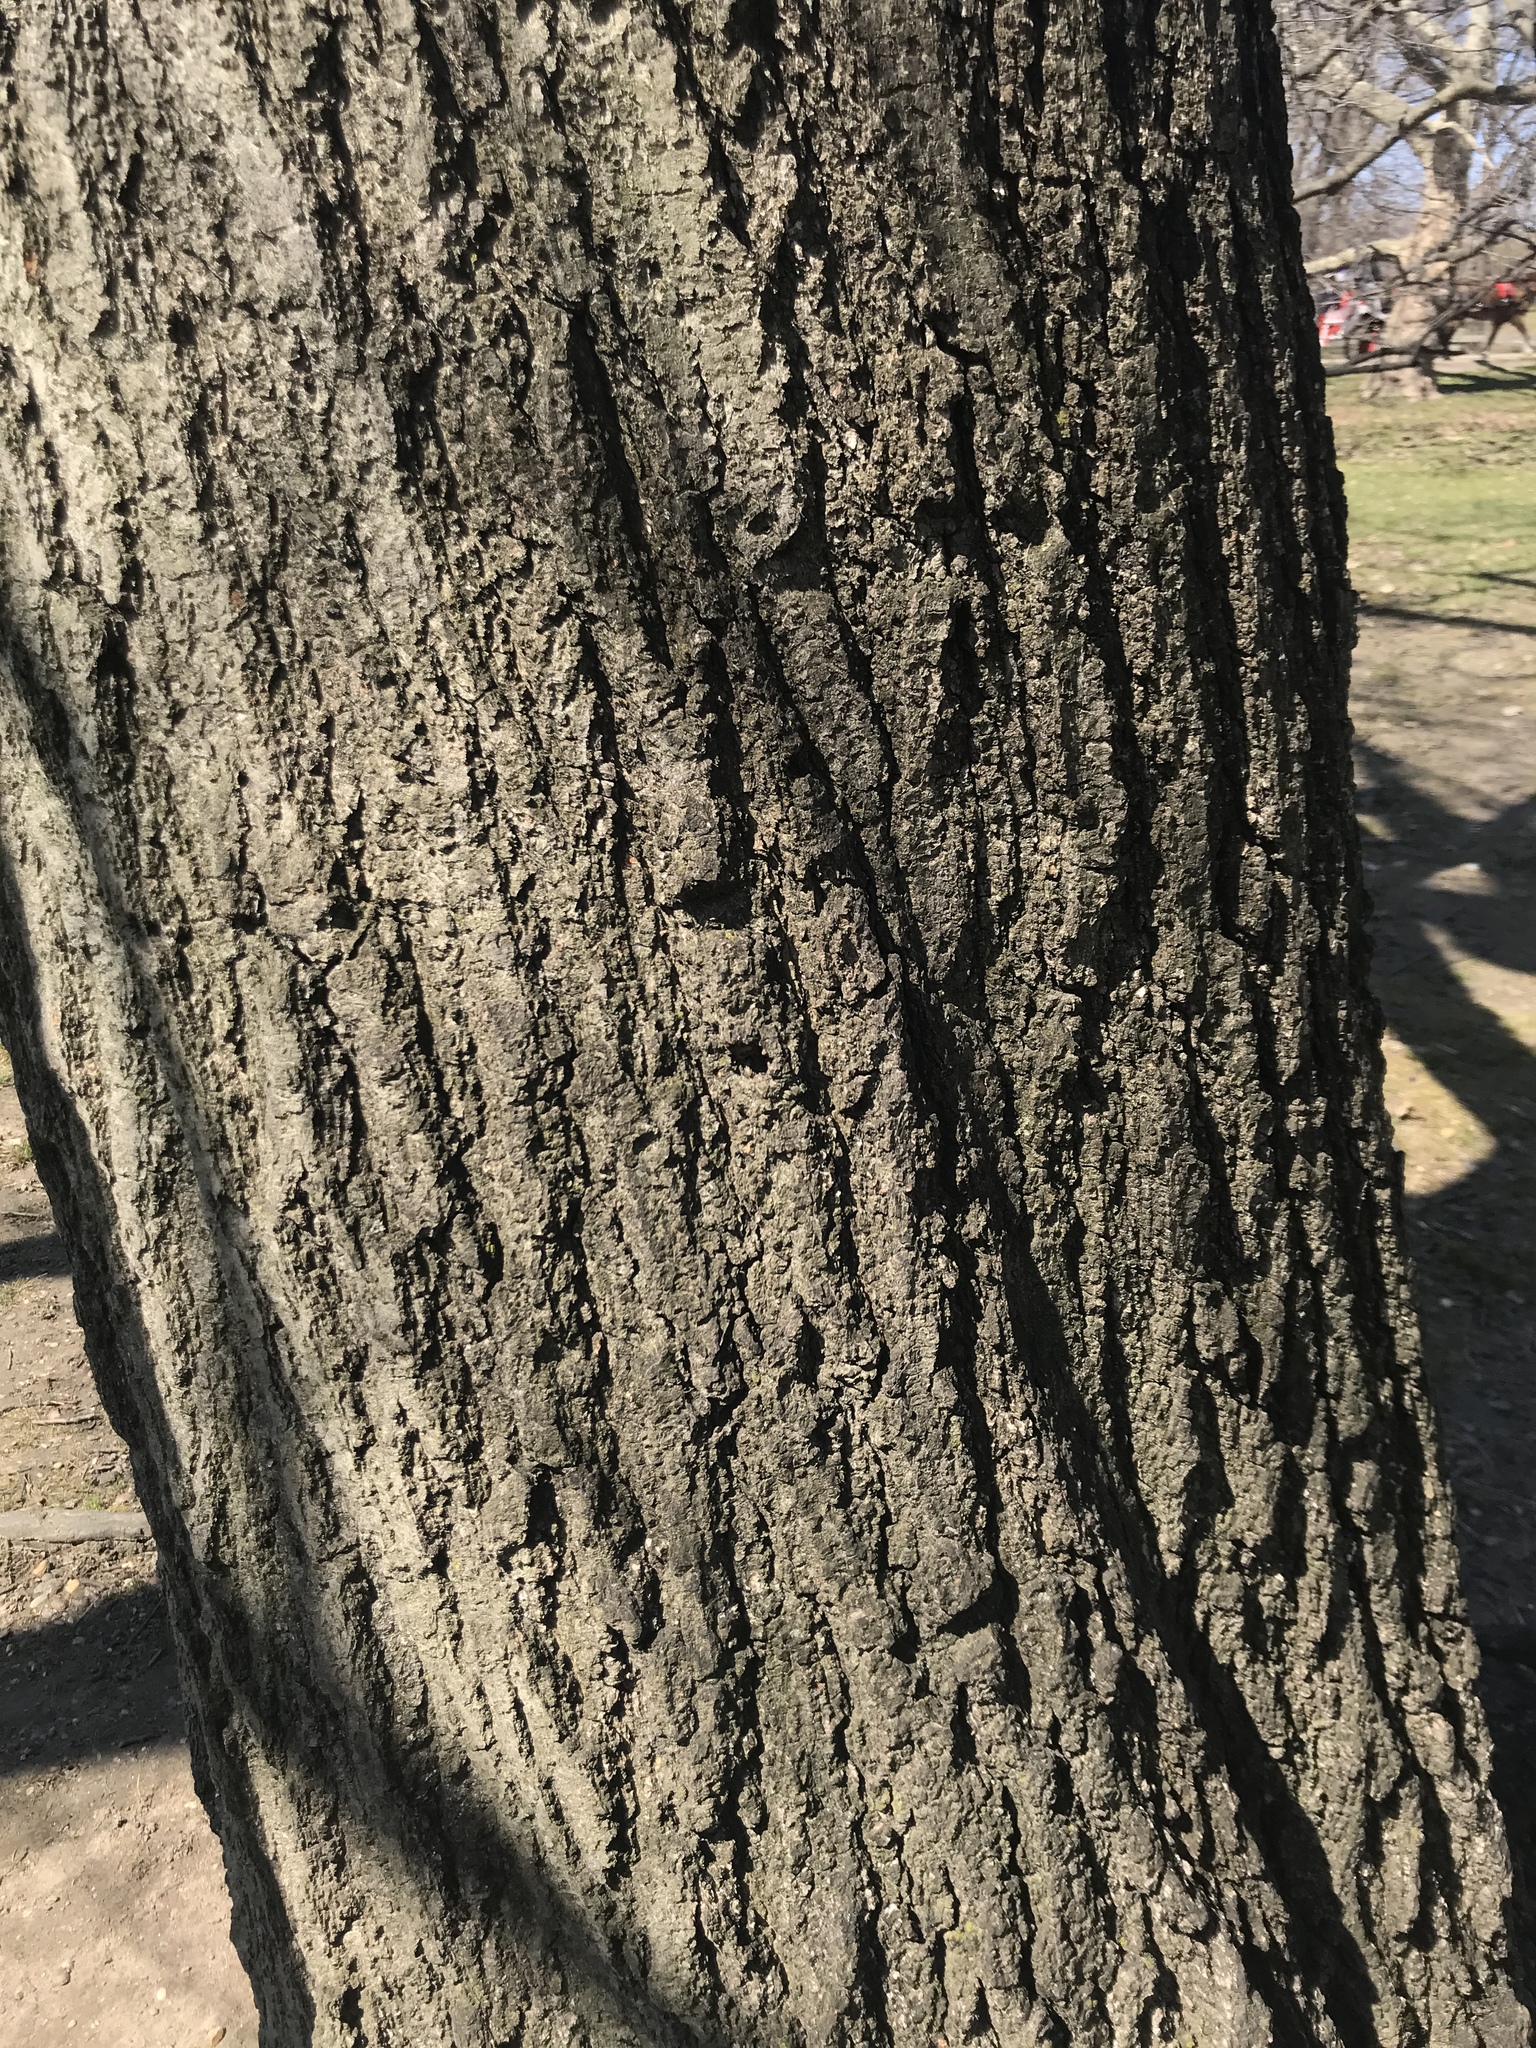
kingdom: Plantae
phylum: Tracheophyta
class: Magnoliopsida
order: Fagales
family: Fagaceae
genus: Quercus
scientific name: Quercus rubra
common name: Red oak
